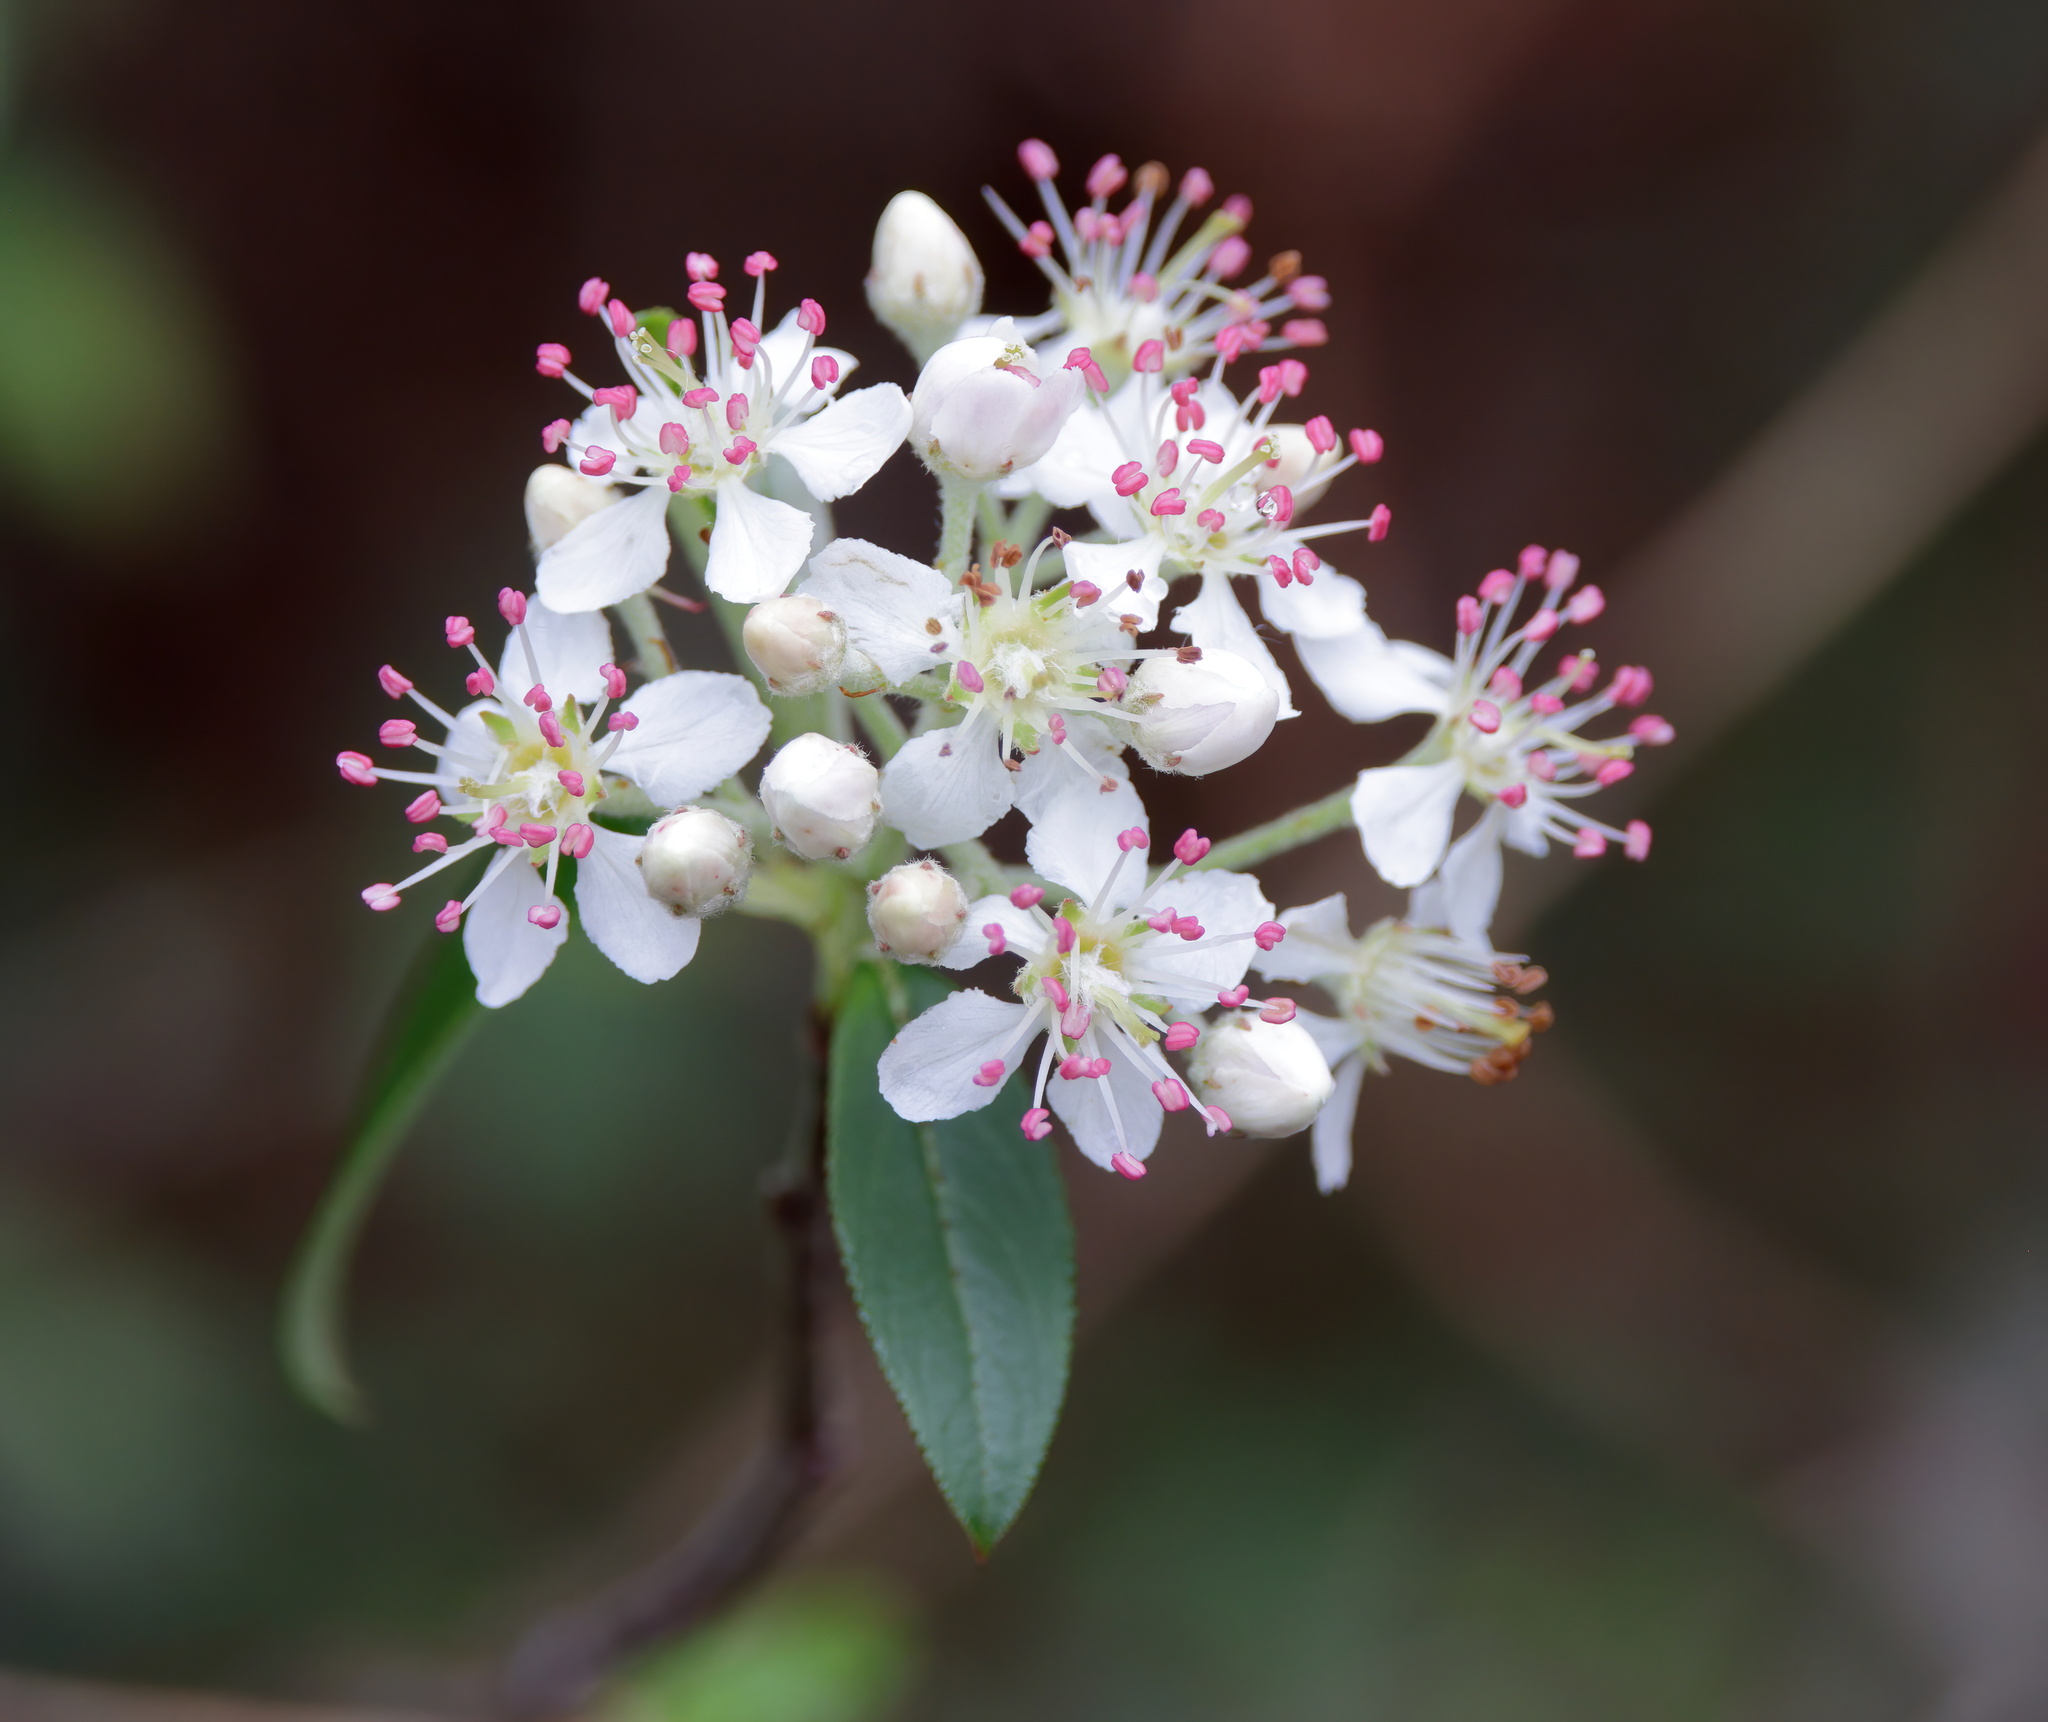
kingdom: Plantae
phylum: Tracheophyta
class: Magnoliopsida
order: Rosales
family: Rosaceae
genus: Aronia
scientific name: Aronia arbutifolia
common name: Red chokeberry
